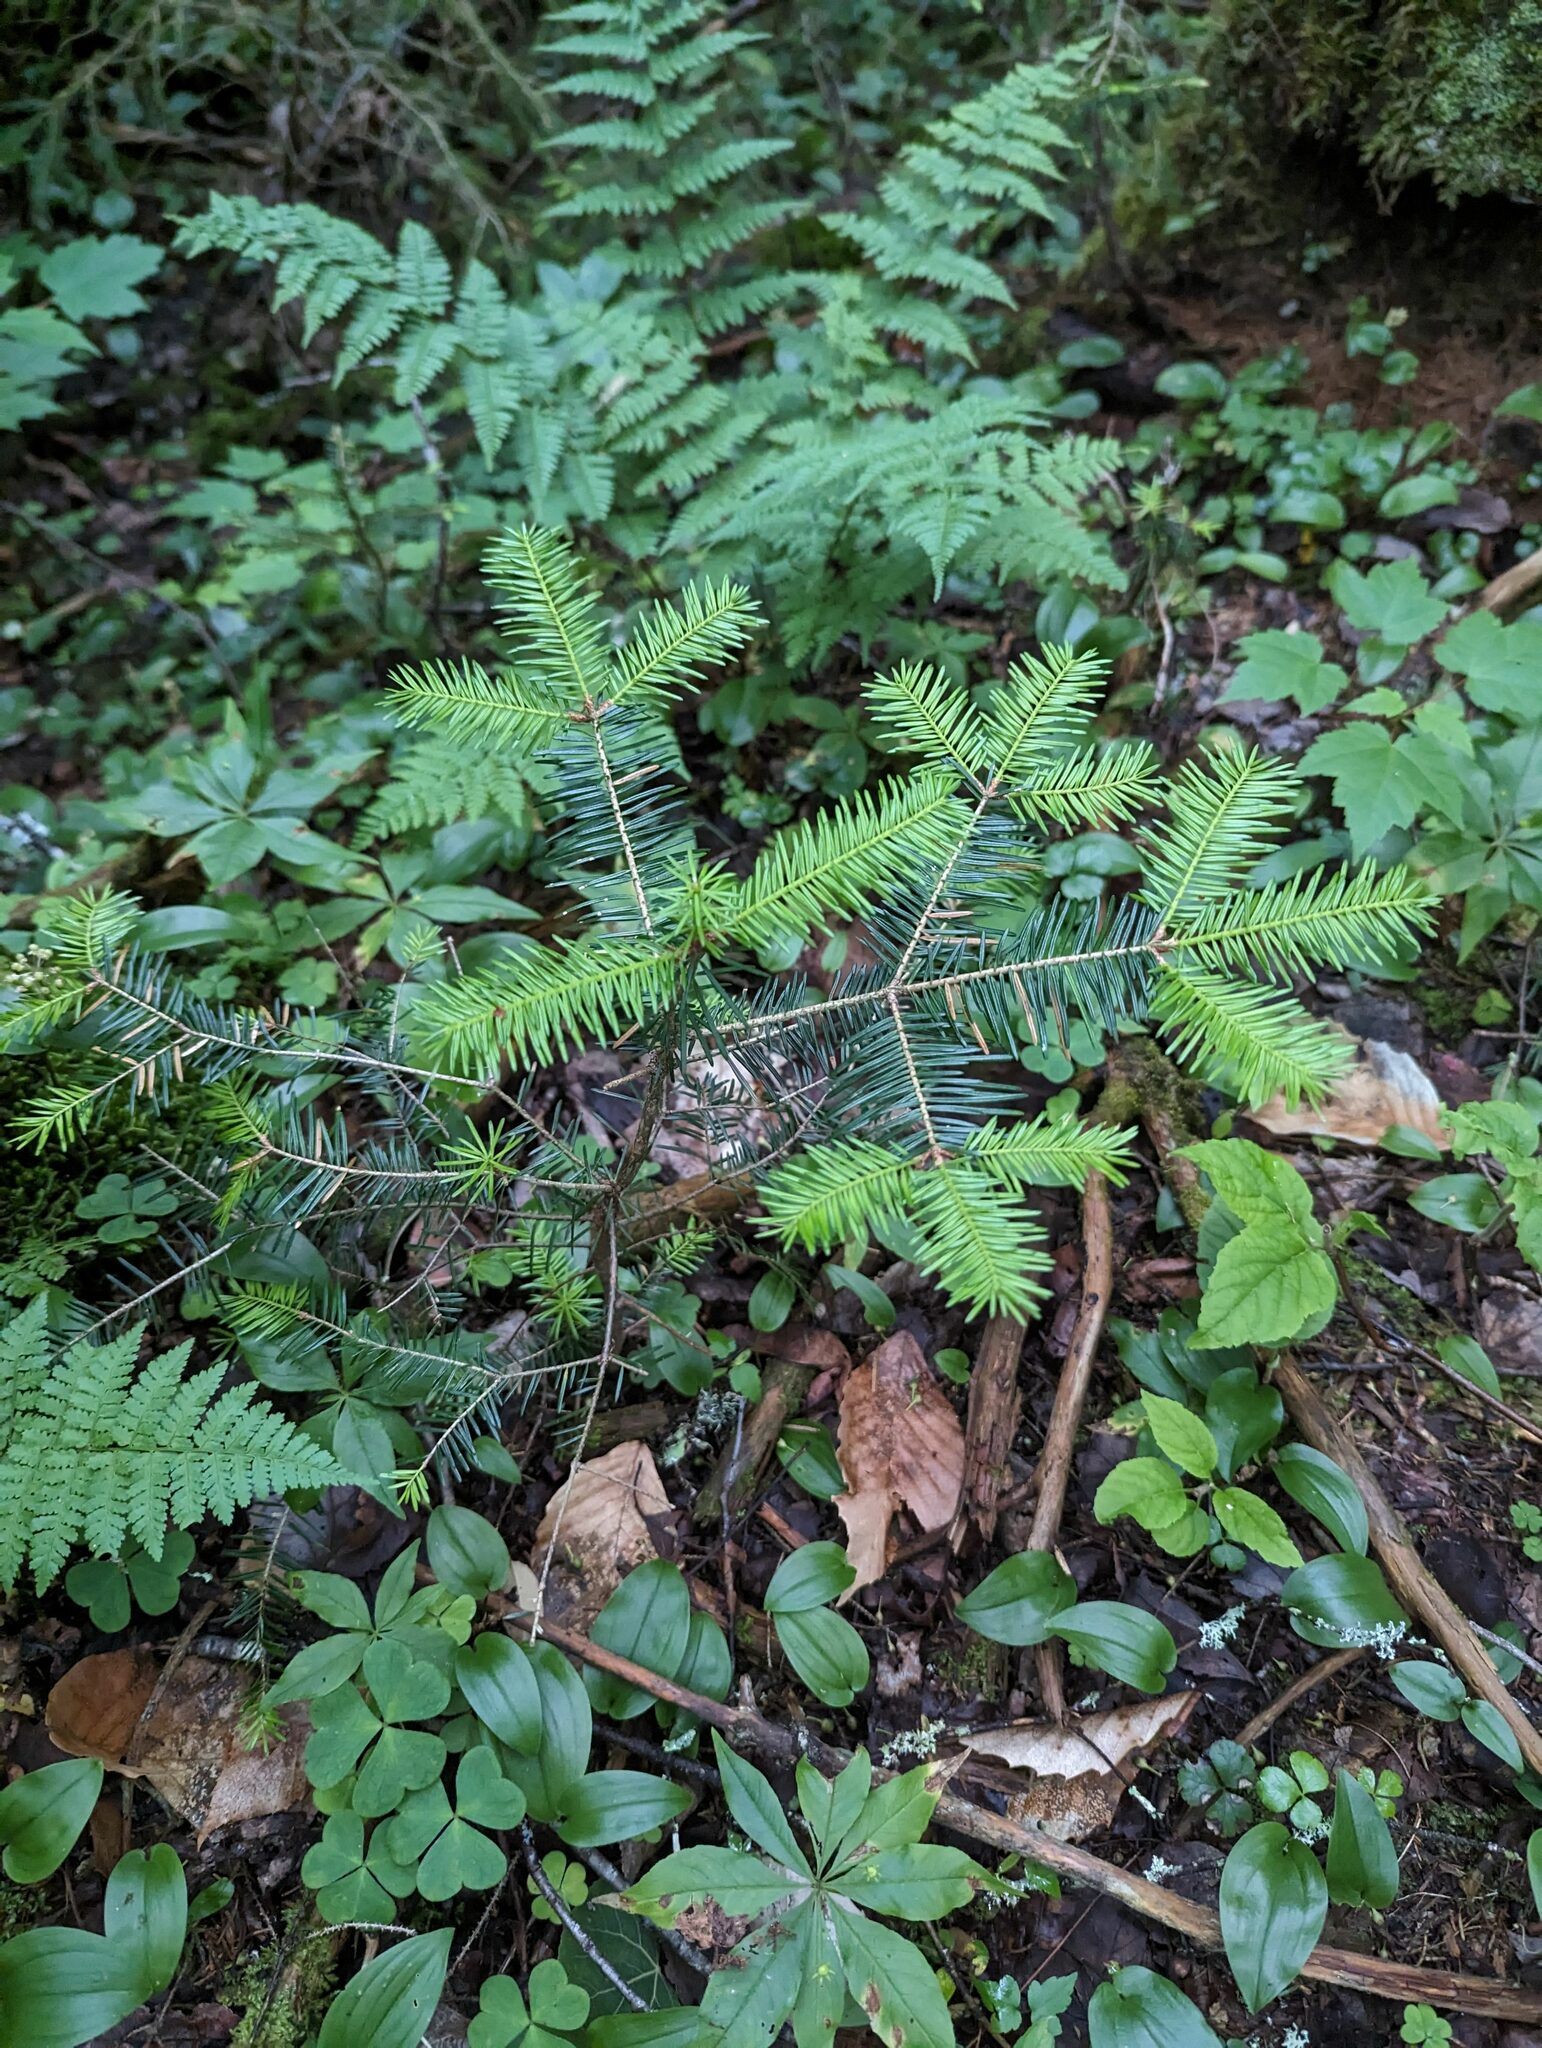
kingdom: Plantae
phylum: Tracheophyta
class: Pinopsida
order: Pinales
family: Pinaceae
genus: Abies
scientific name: Abies balsamea
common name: Balsam fir
